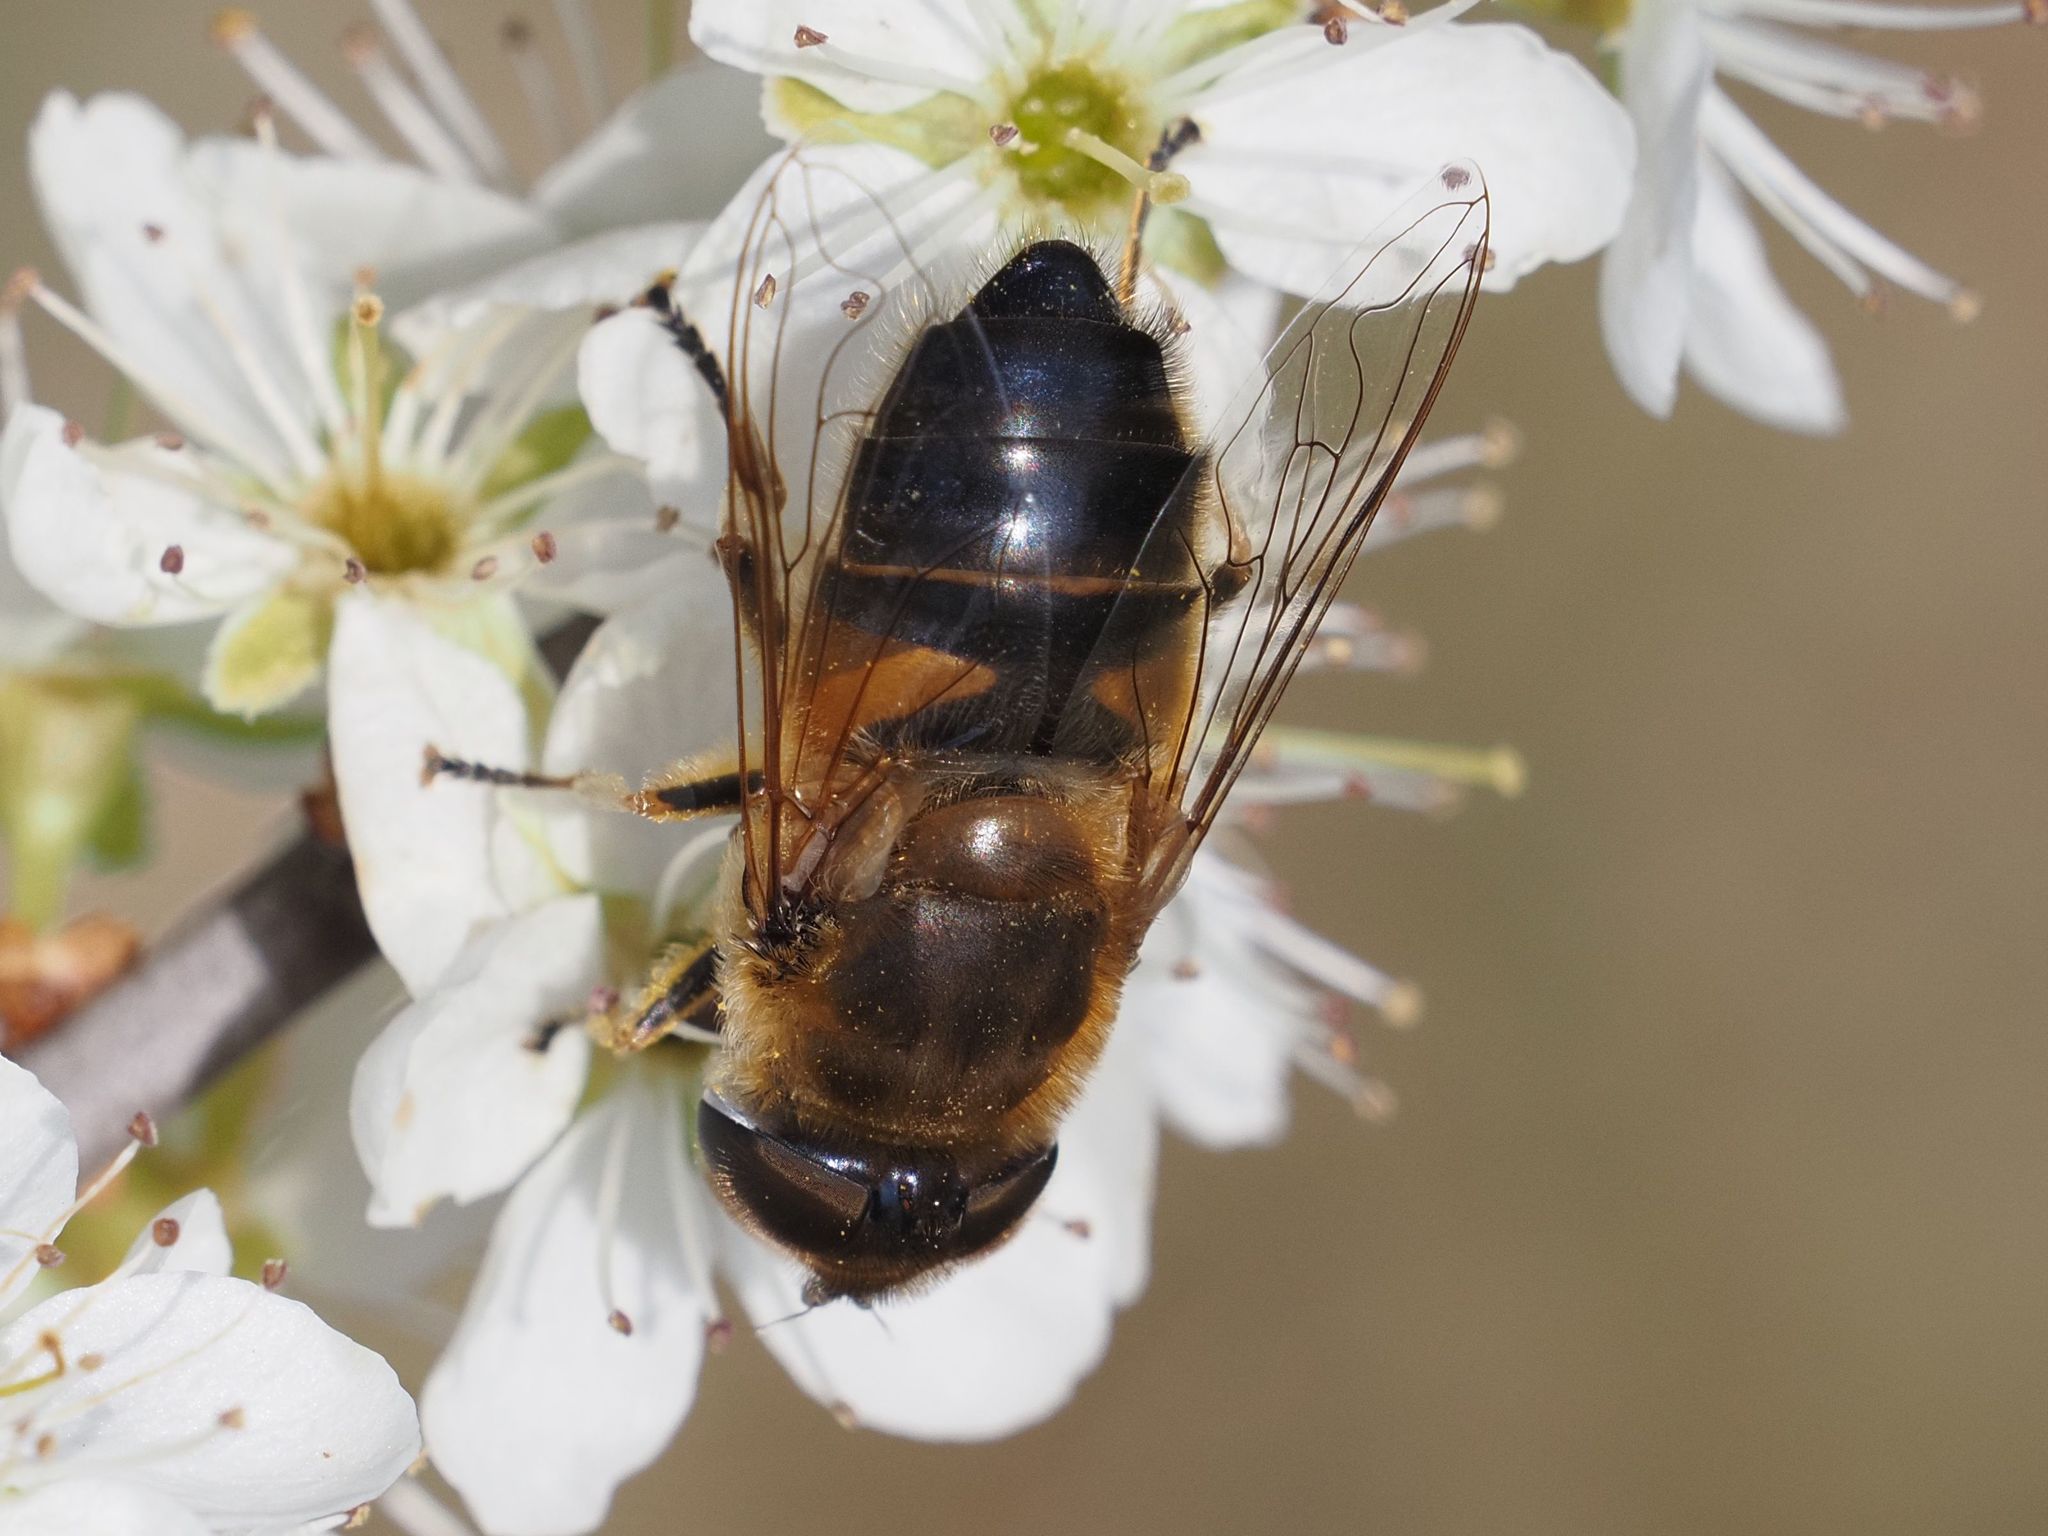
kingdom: Animalia
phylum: Arthropoda
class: Insecta
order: Diptera
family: Syrphidae
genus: Eristalis
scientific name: Eristalis pertinax
